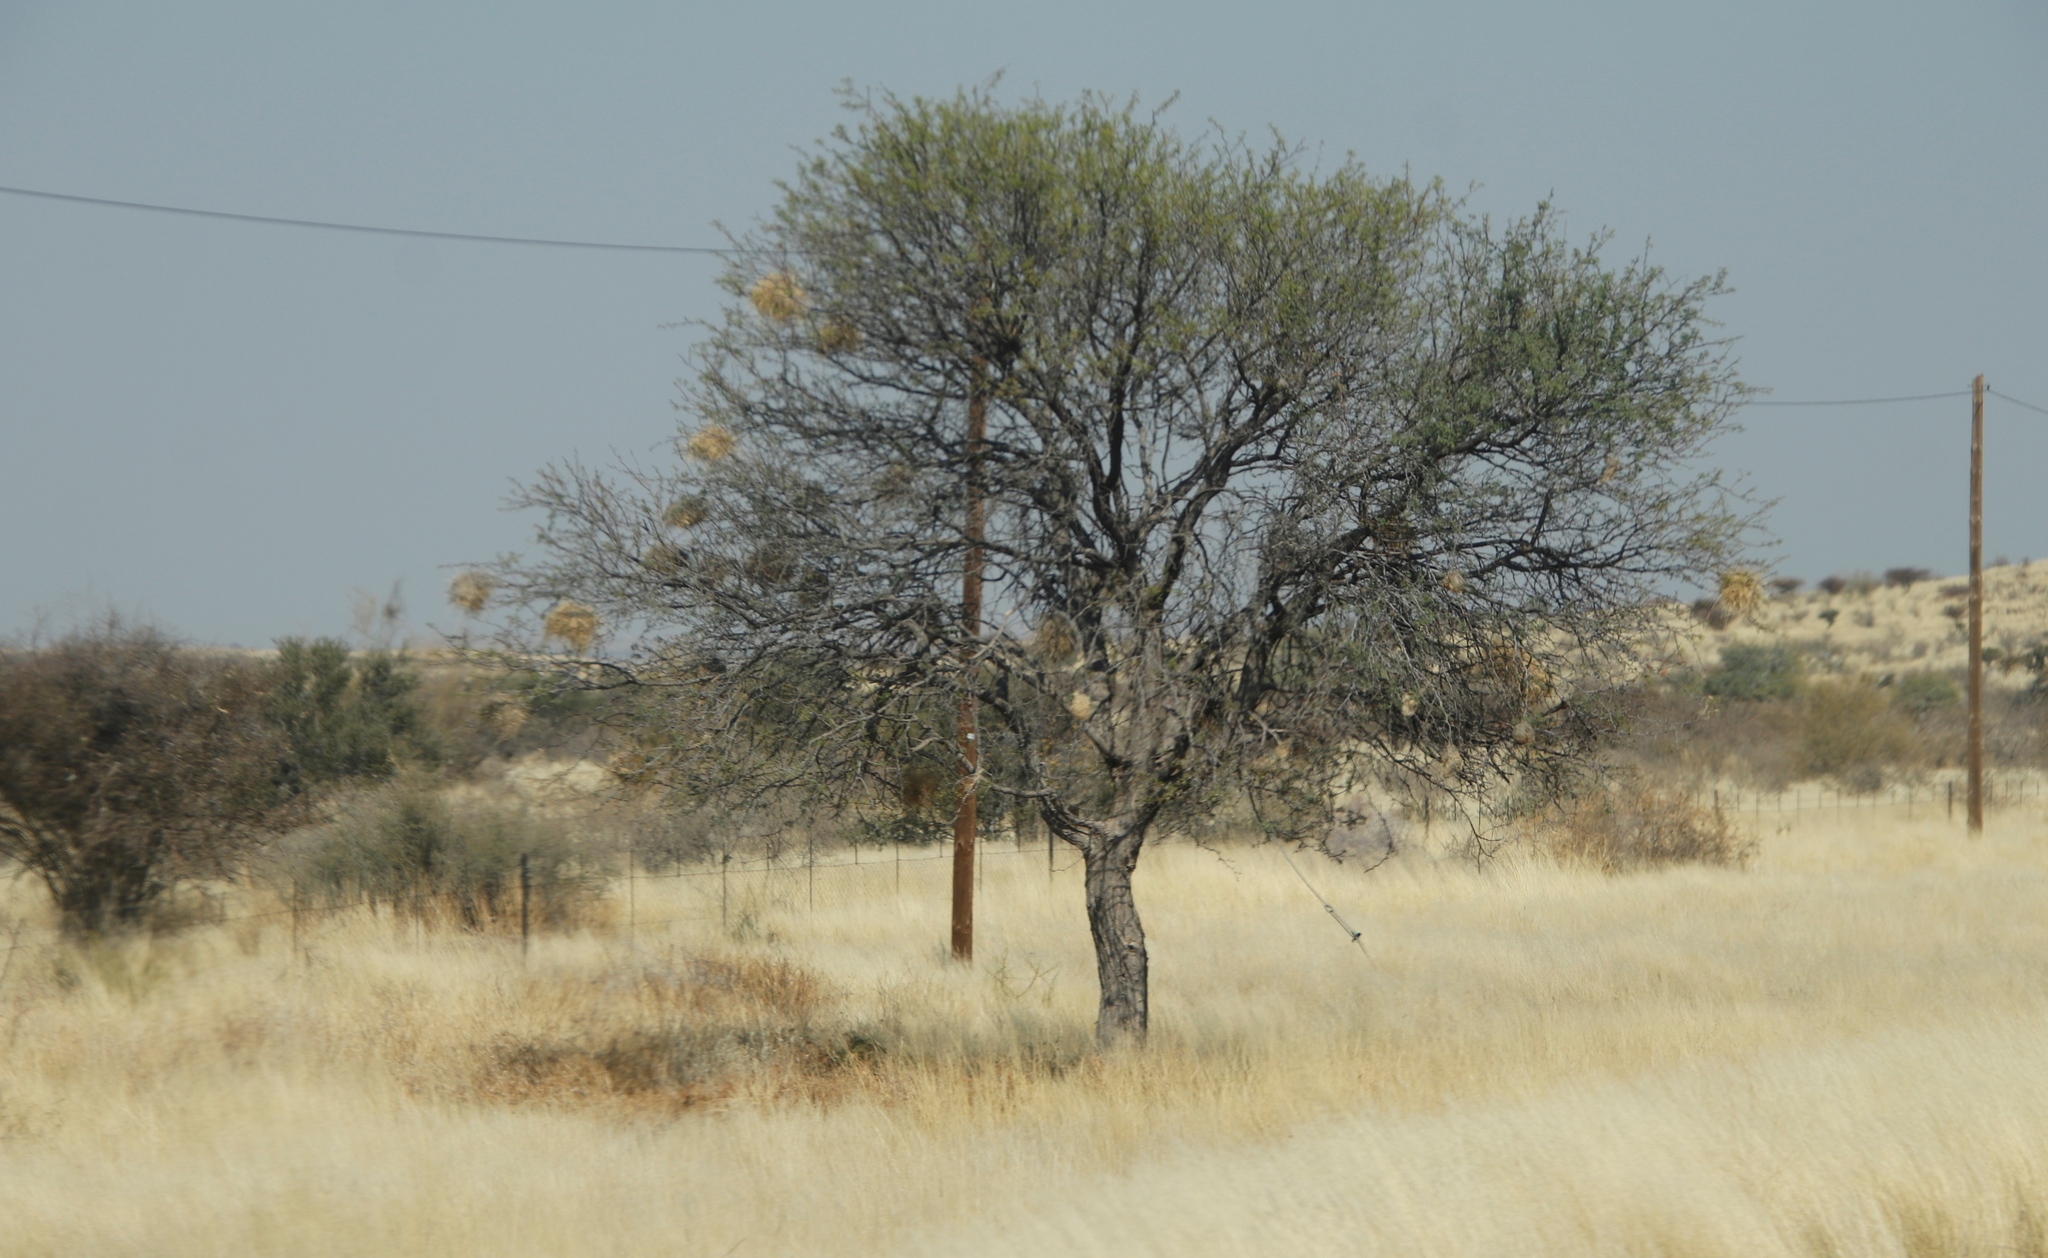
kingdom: Animalia
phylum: Chordata
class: Aves
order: Passeriformes
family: Passeridae
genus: Plocepasser
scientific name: Plocepasser mahali
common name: White-browed sparrow-weaver
